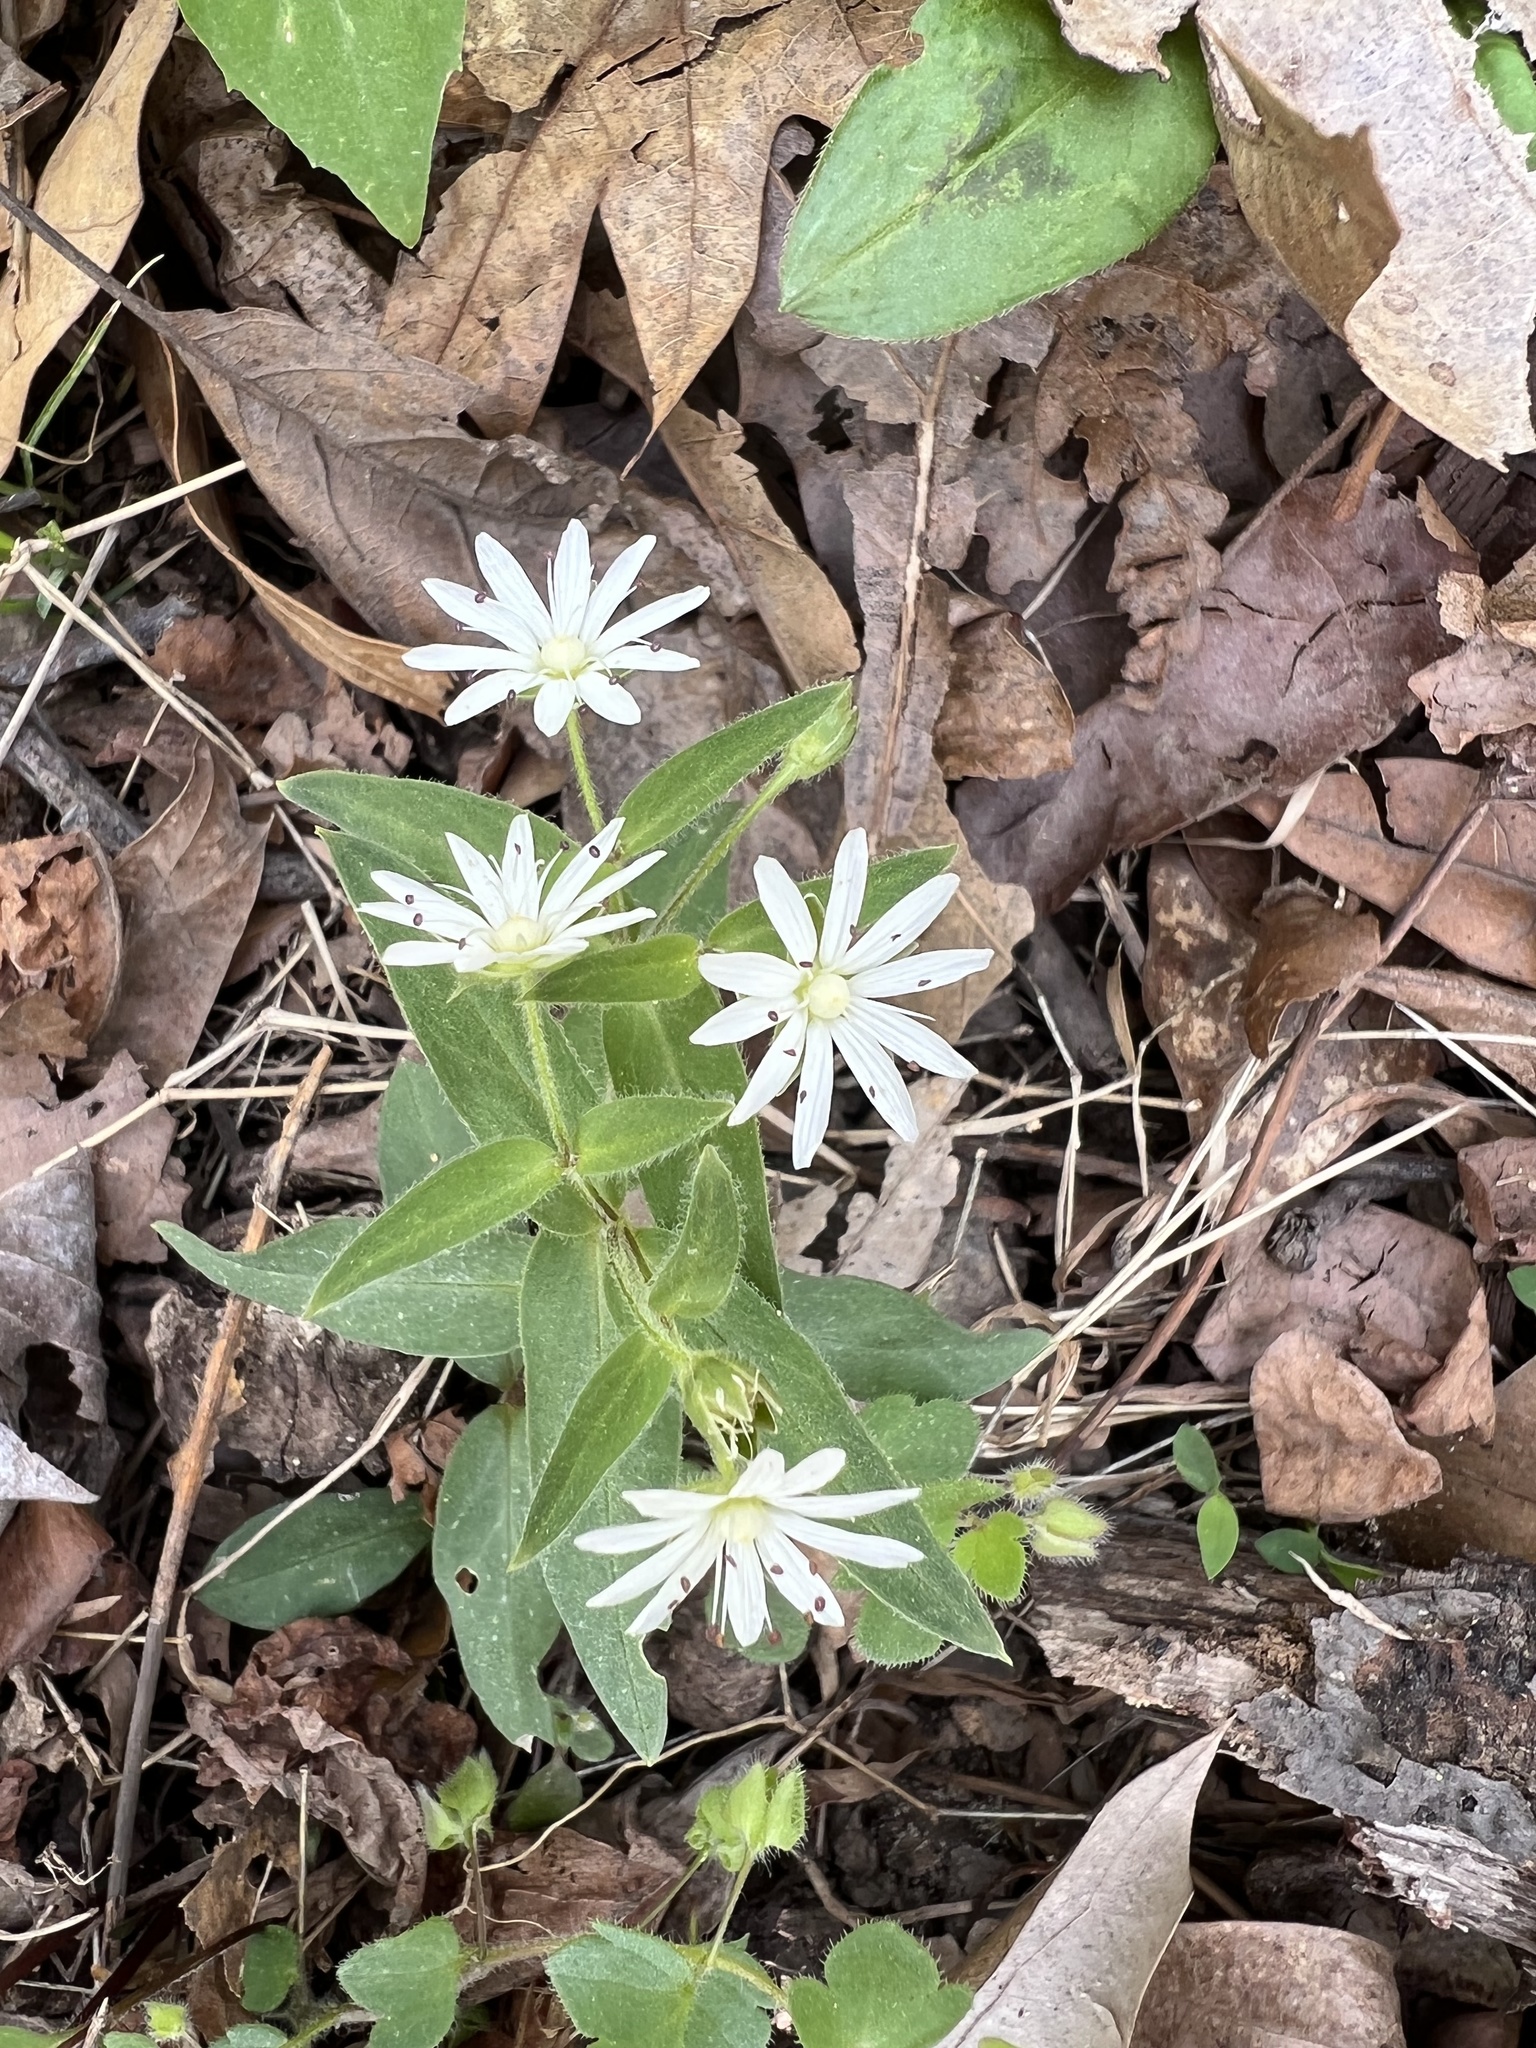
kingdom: Plantae
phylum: Tracheophyta
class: Magnoliopsida
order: Caryophyllales
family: Caryophyllaceae
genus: Stellaria
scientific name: Stellaria pubera
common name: Star chickweed
